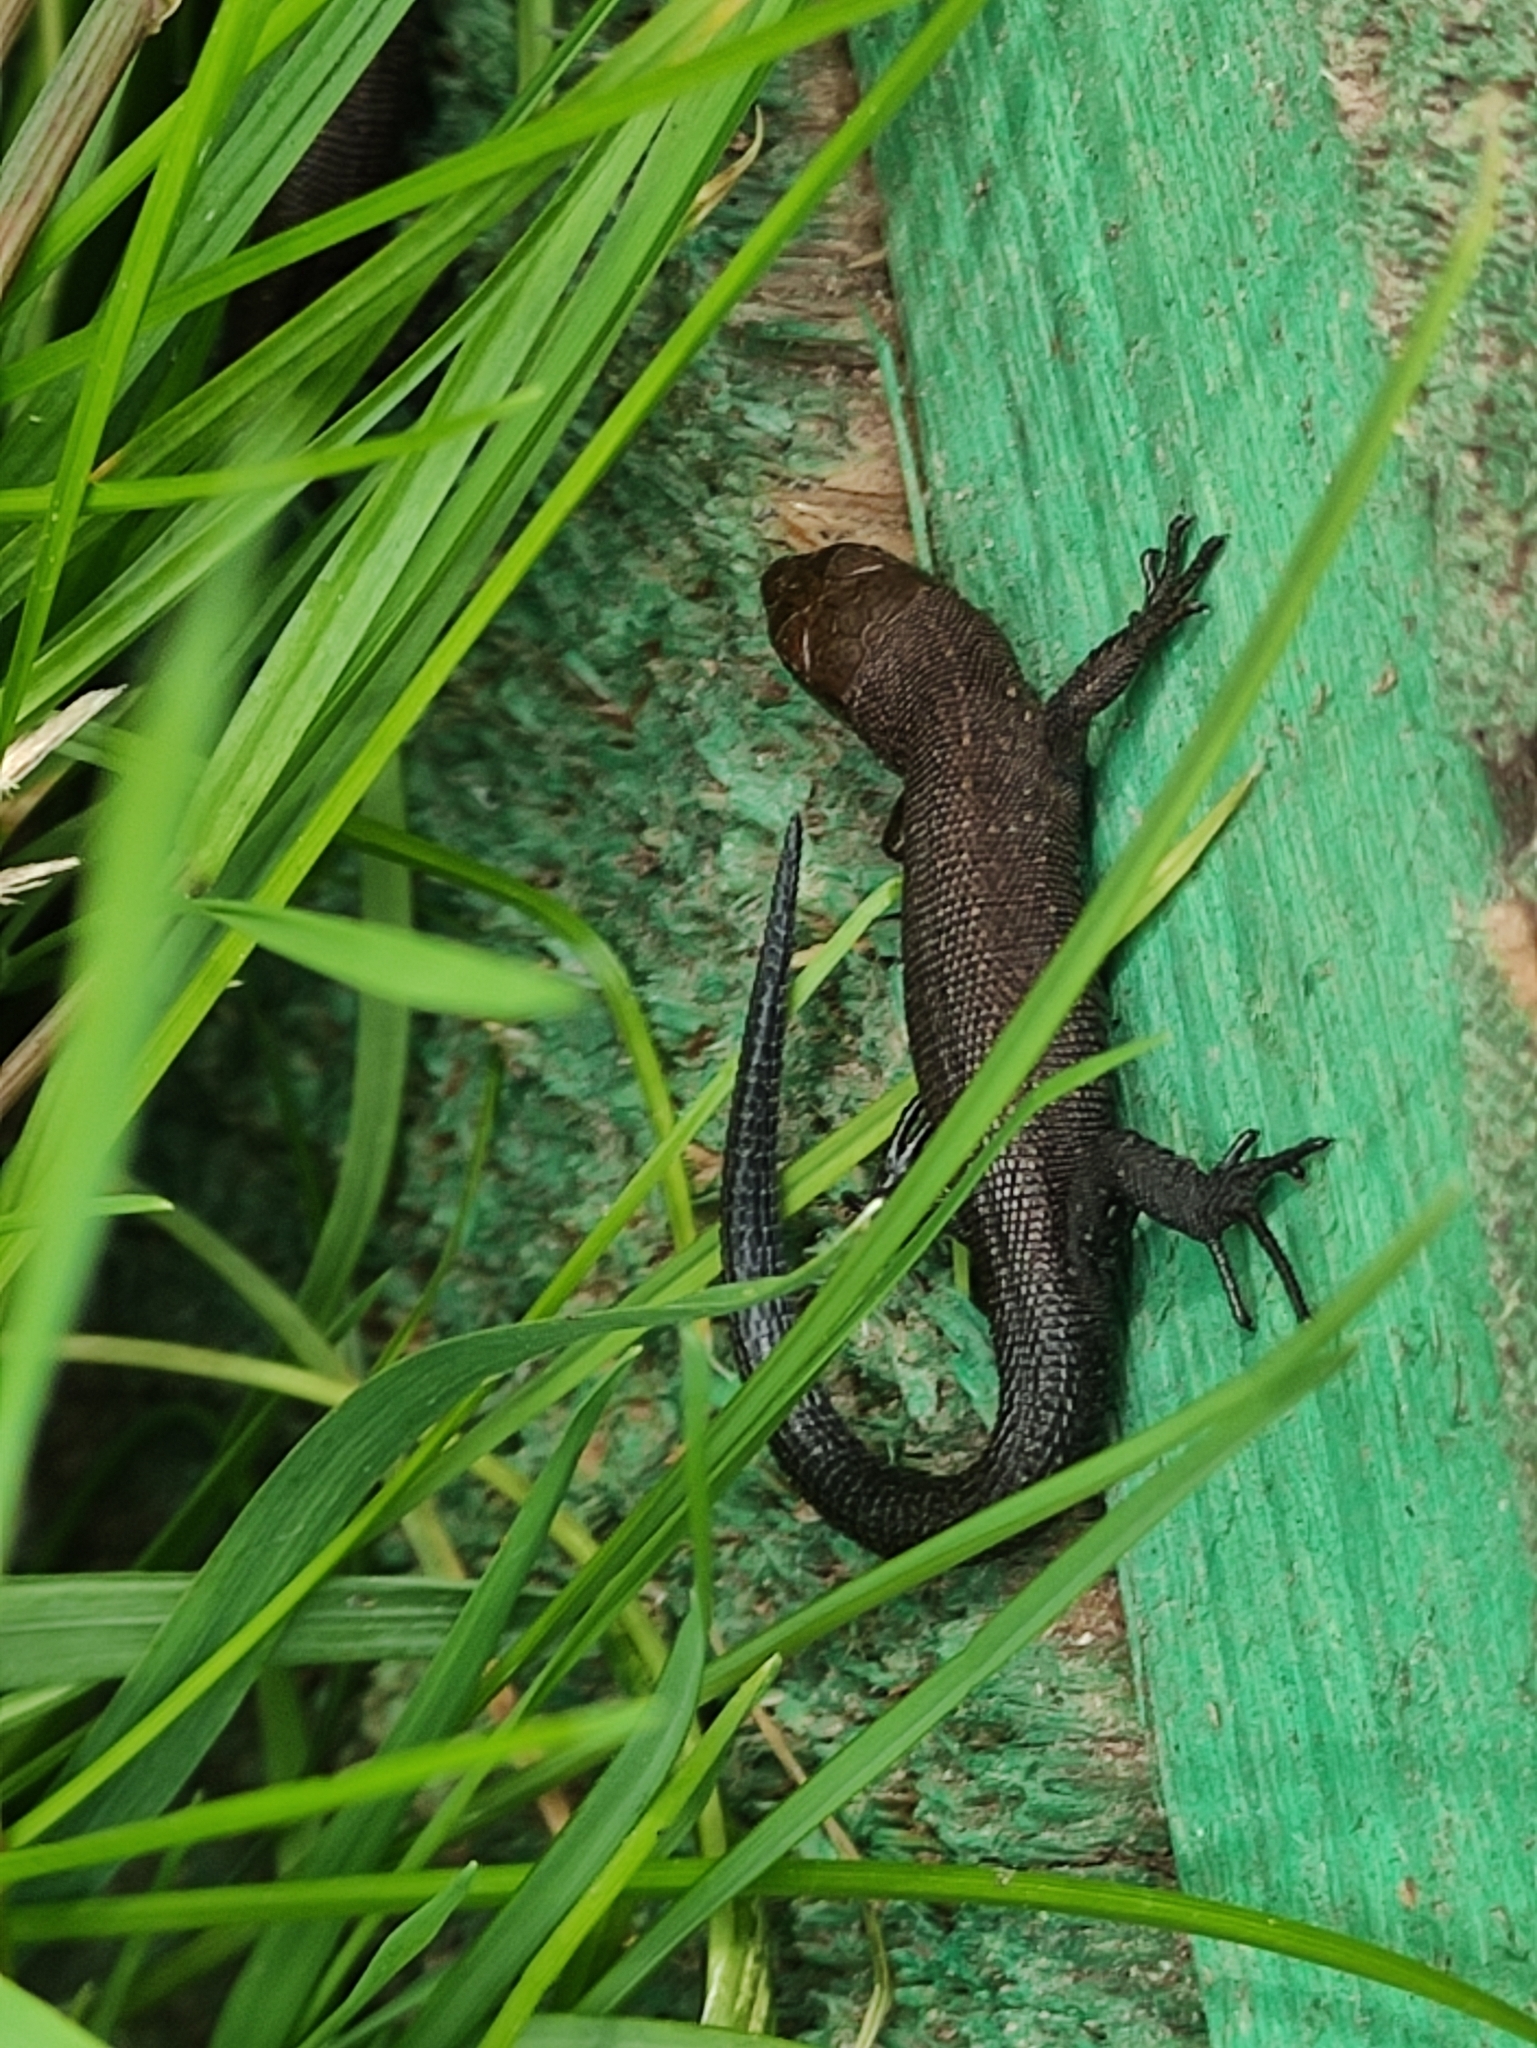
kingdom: Animalia
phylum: Chordata
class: Squamata
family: Lacertidae
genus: Zootoca
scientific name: Zootoca vivipara
